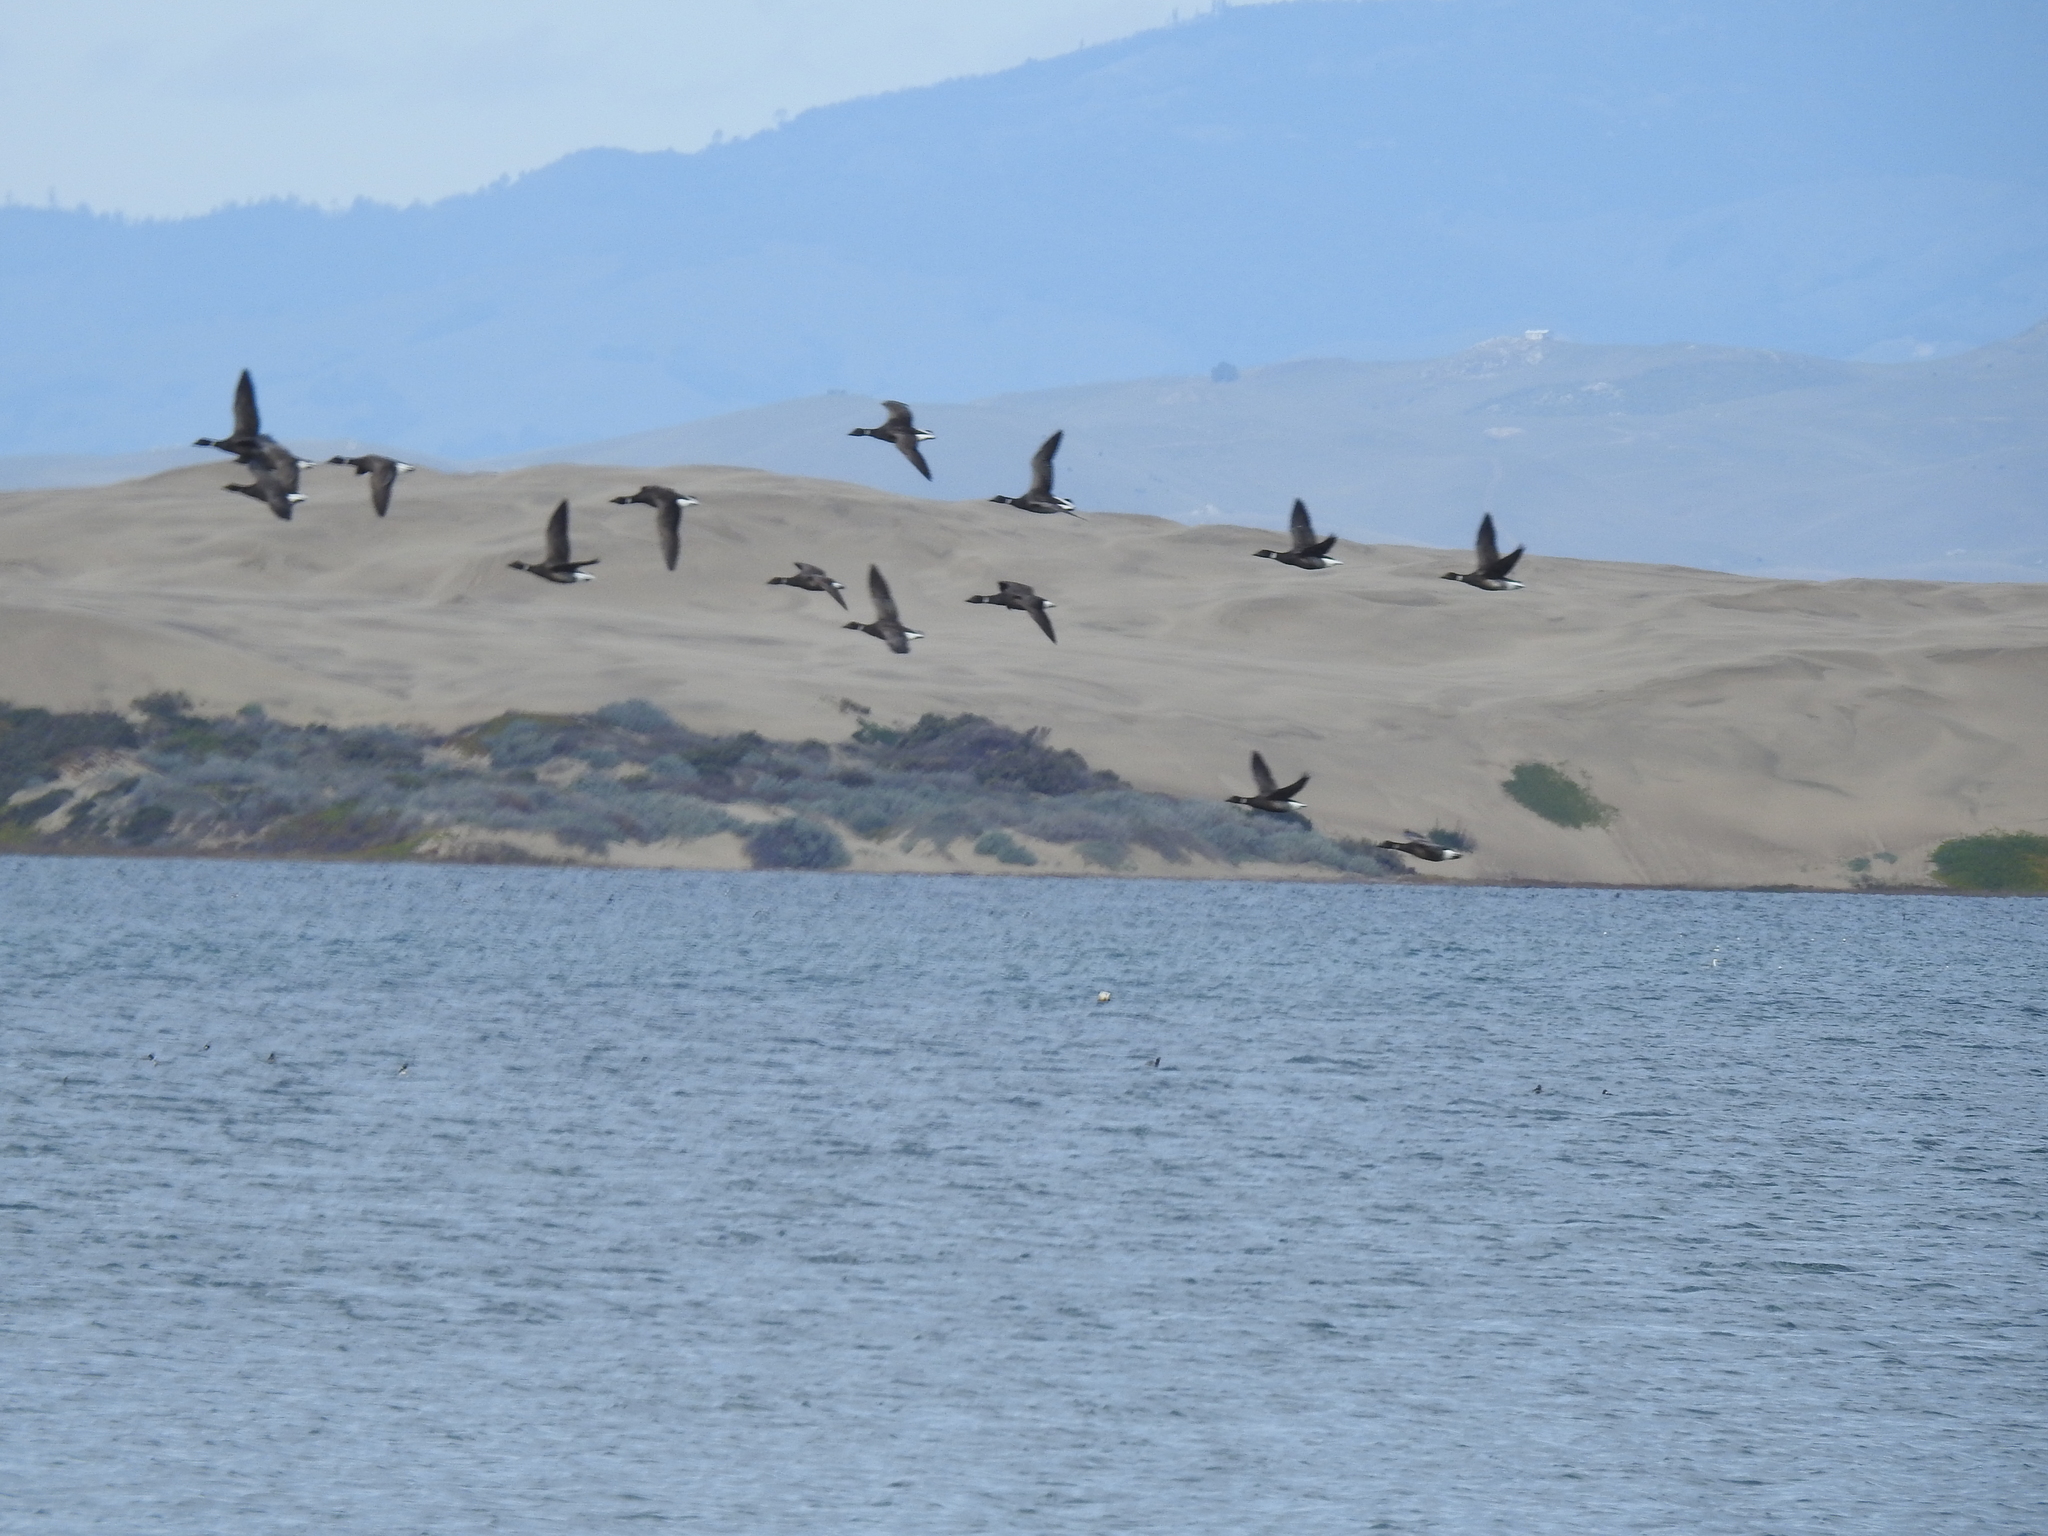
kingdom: Animalia
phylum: Chordata
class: Aves
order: Anseriformes
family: Anatidae
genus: Branta
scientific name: Branta bernicla
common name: Brant goose
